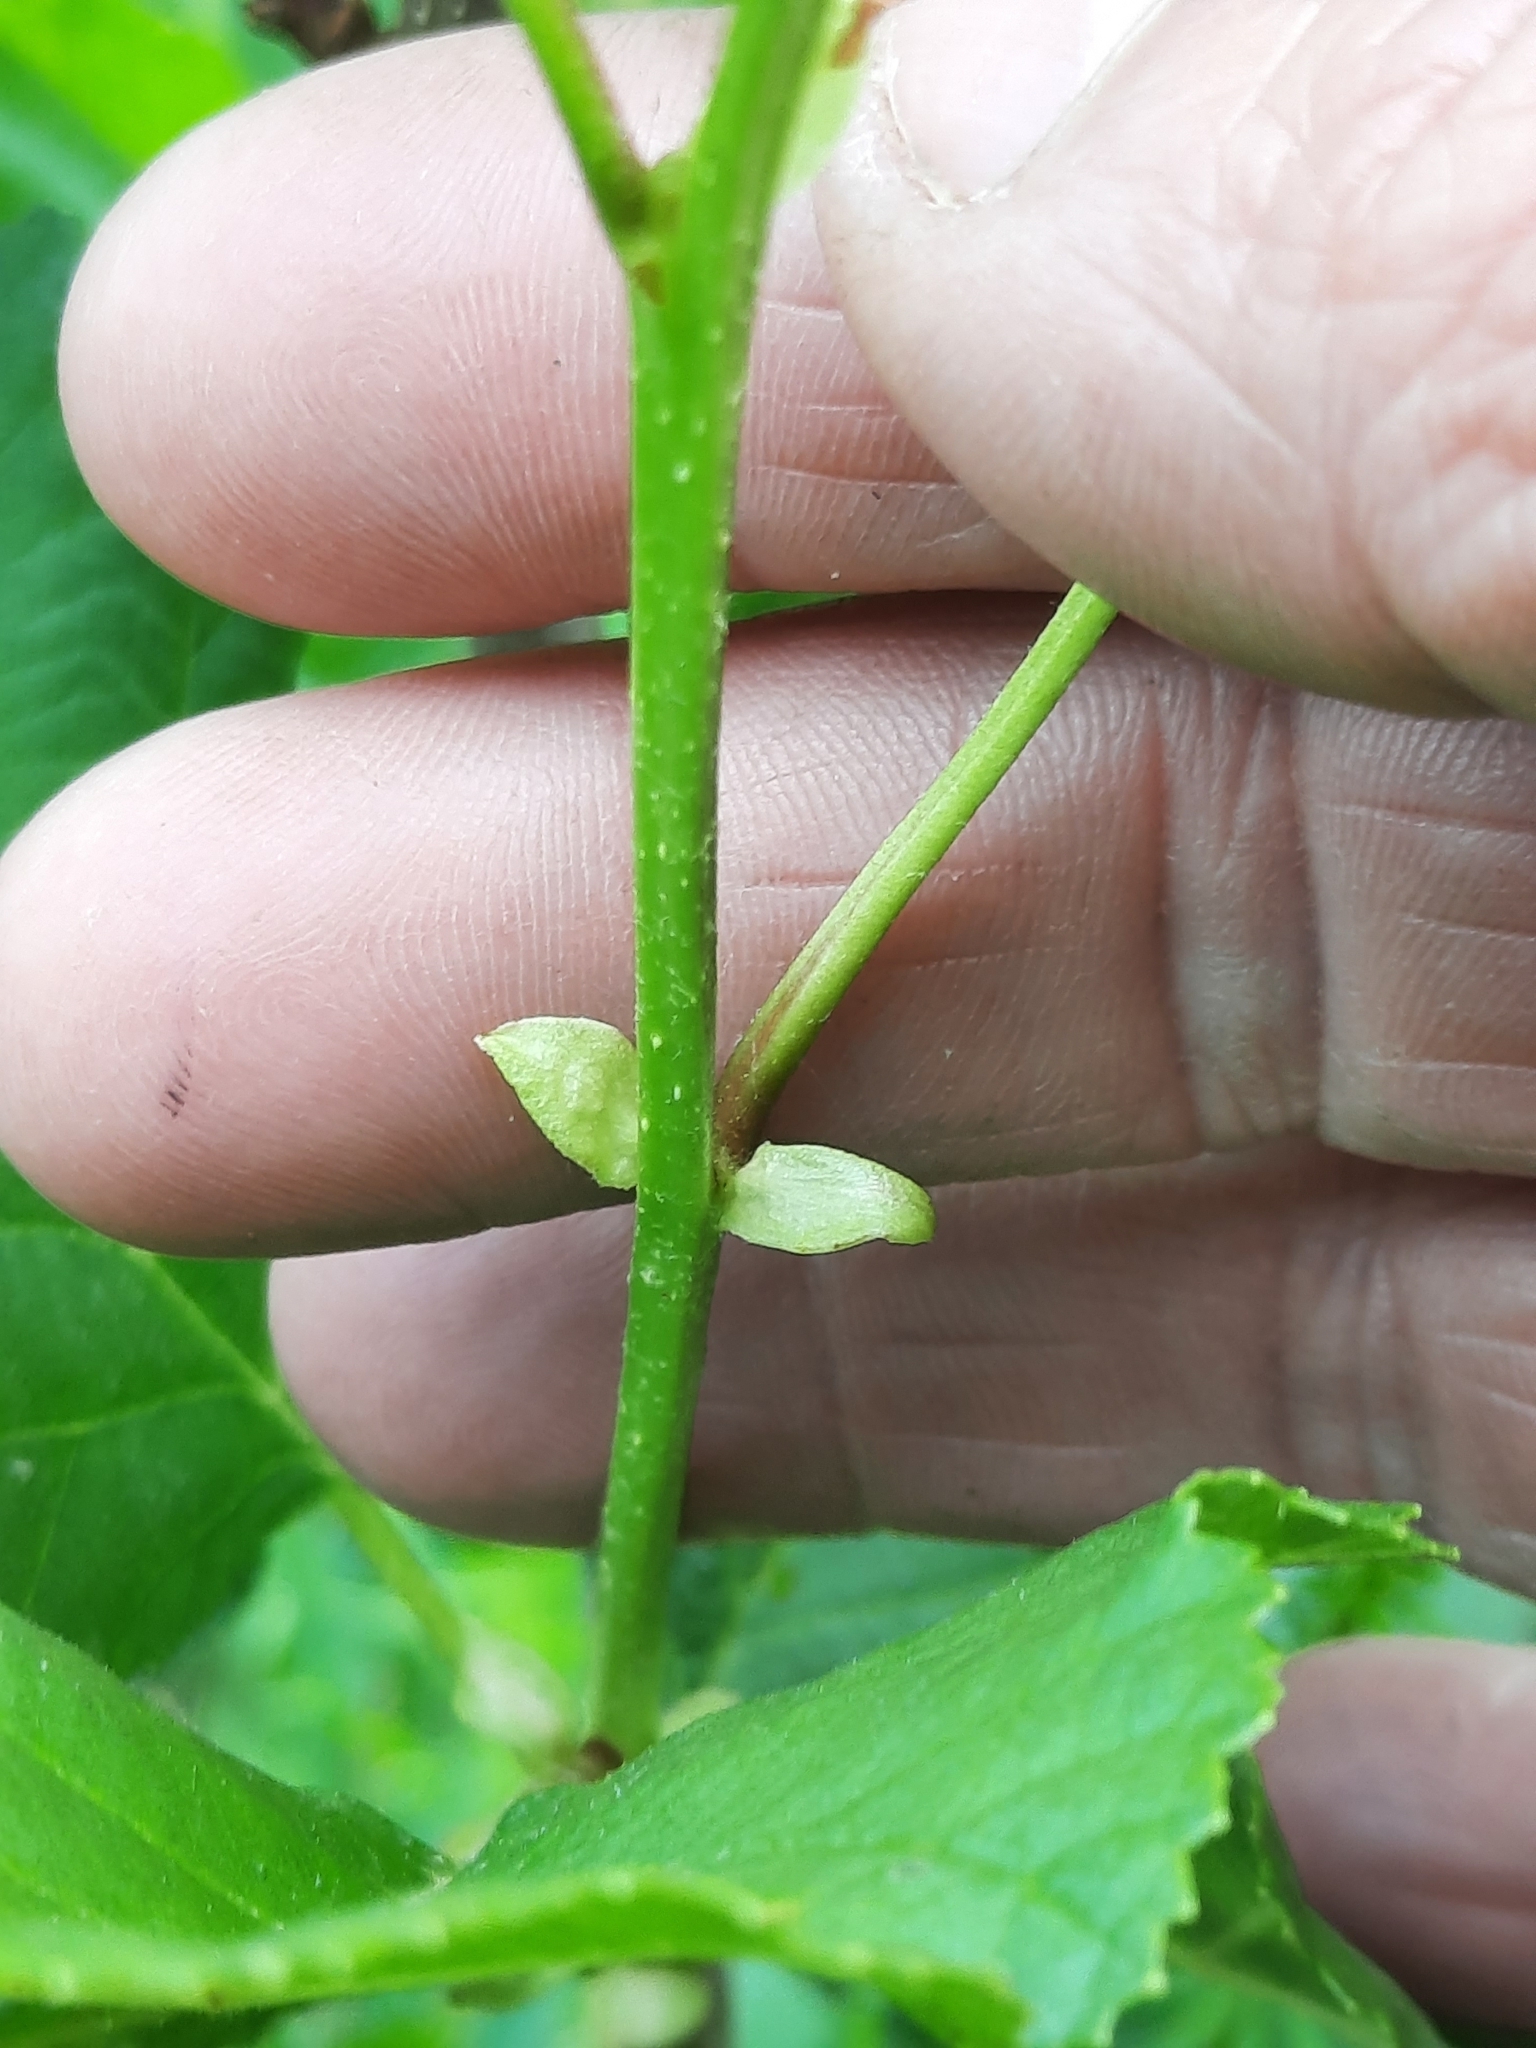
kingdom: Plantae
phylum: Tracheophyta
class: Magnoliopsida
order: Fagales
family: Betulaceae
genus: Alnus
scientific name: Alnus glutinosa
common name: Black alder
